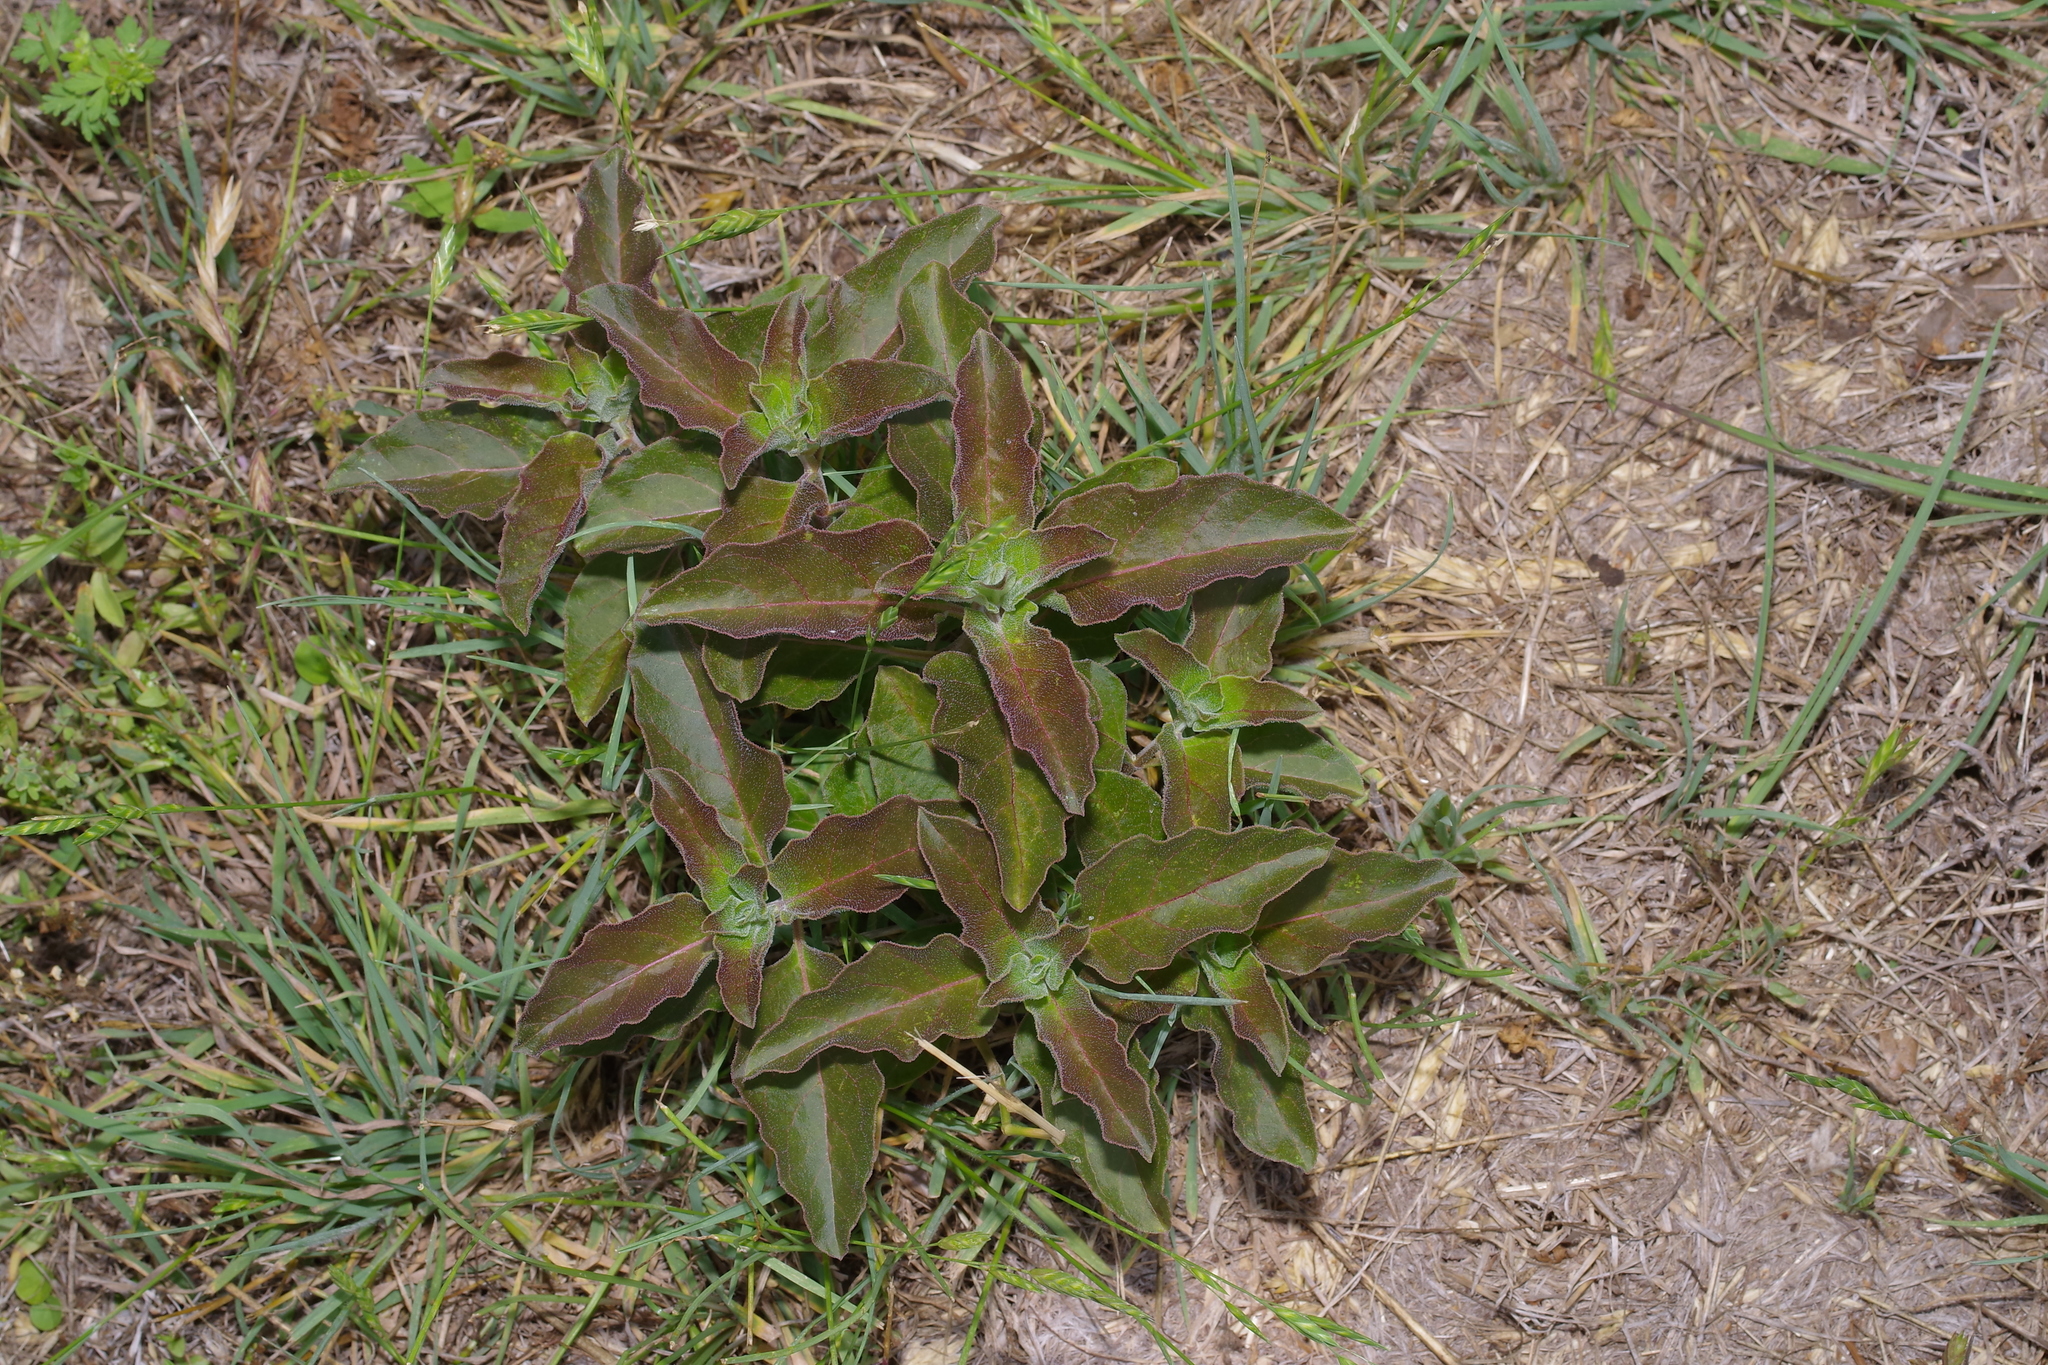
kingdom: Plantae
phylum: Tracheophyta
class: Magnoliopsida
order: Gentianales
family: Apocynaceae
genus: Asclepias
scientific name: Asclepias oenotheroides
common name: Zizotes milkweed
